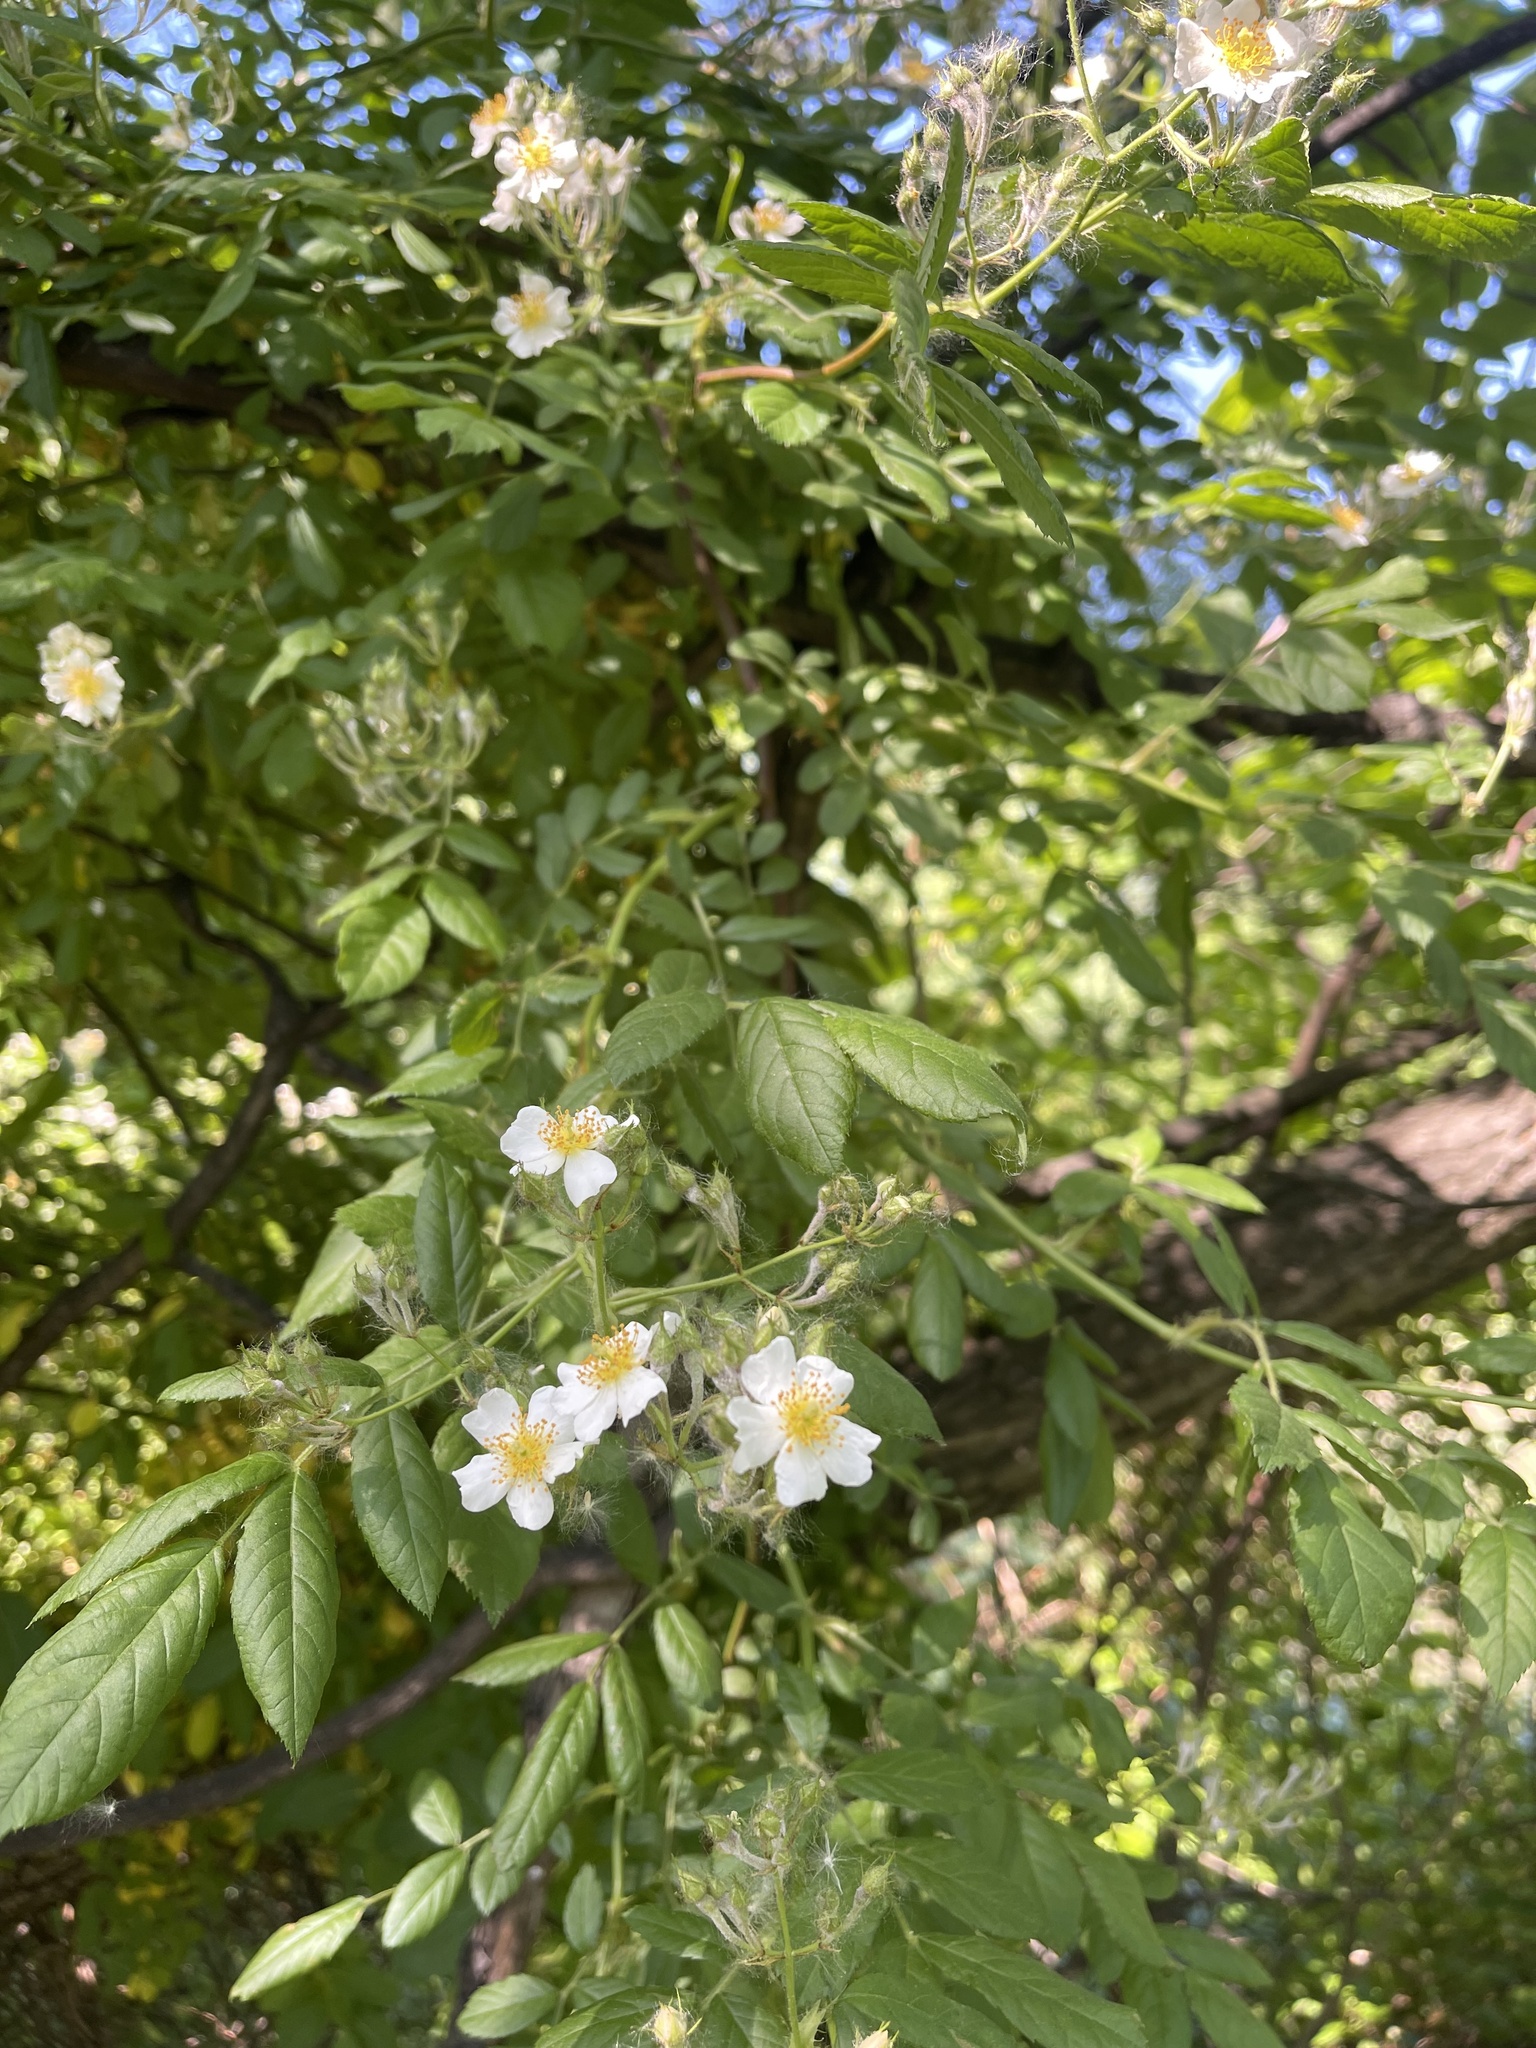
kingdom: Plantae
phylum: Tracheophyta
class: Magnoliopsida
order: Rosales
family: Rosaceae
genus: Rosa
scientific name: Rosa multiflora
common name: Multiflora rose
